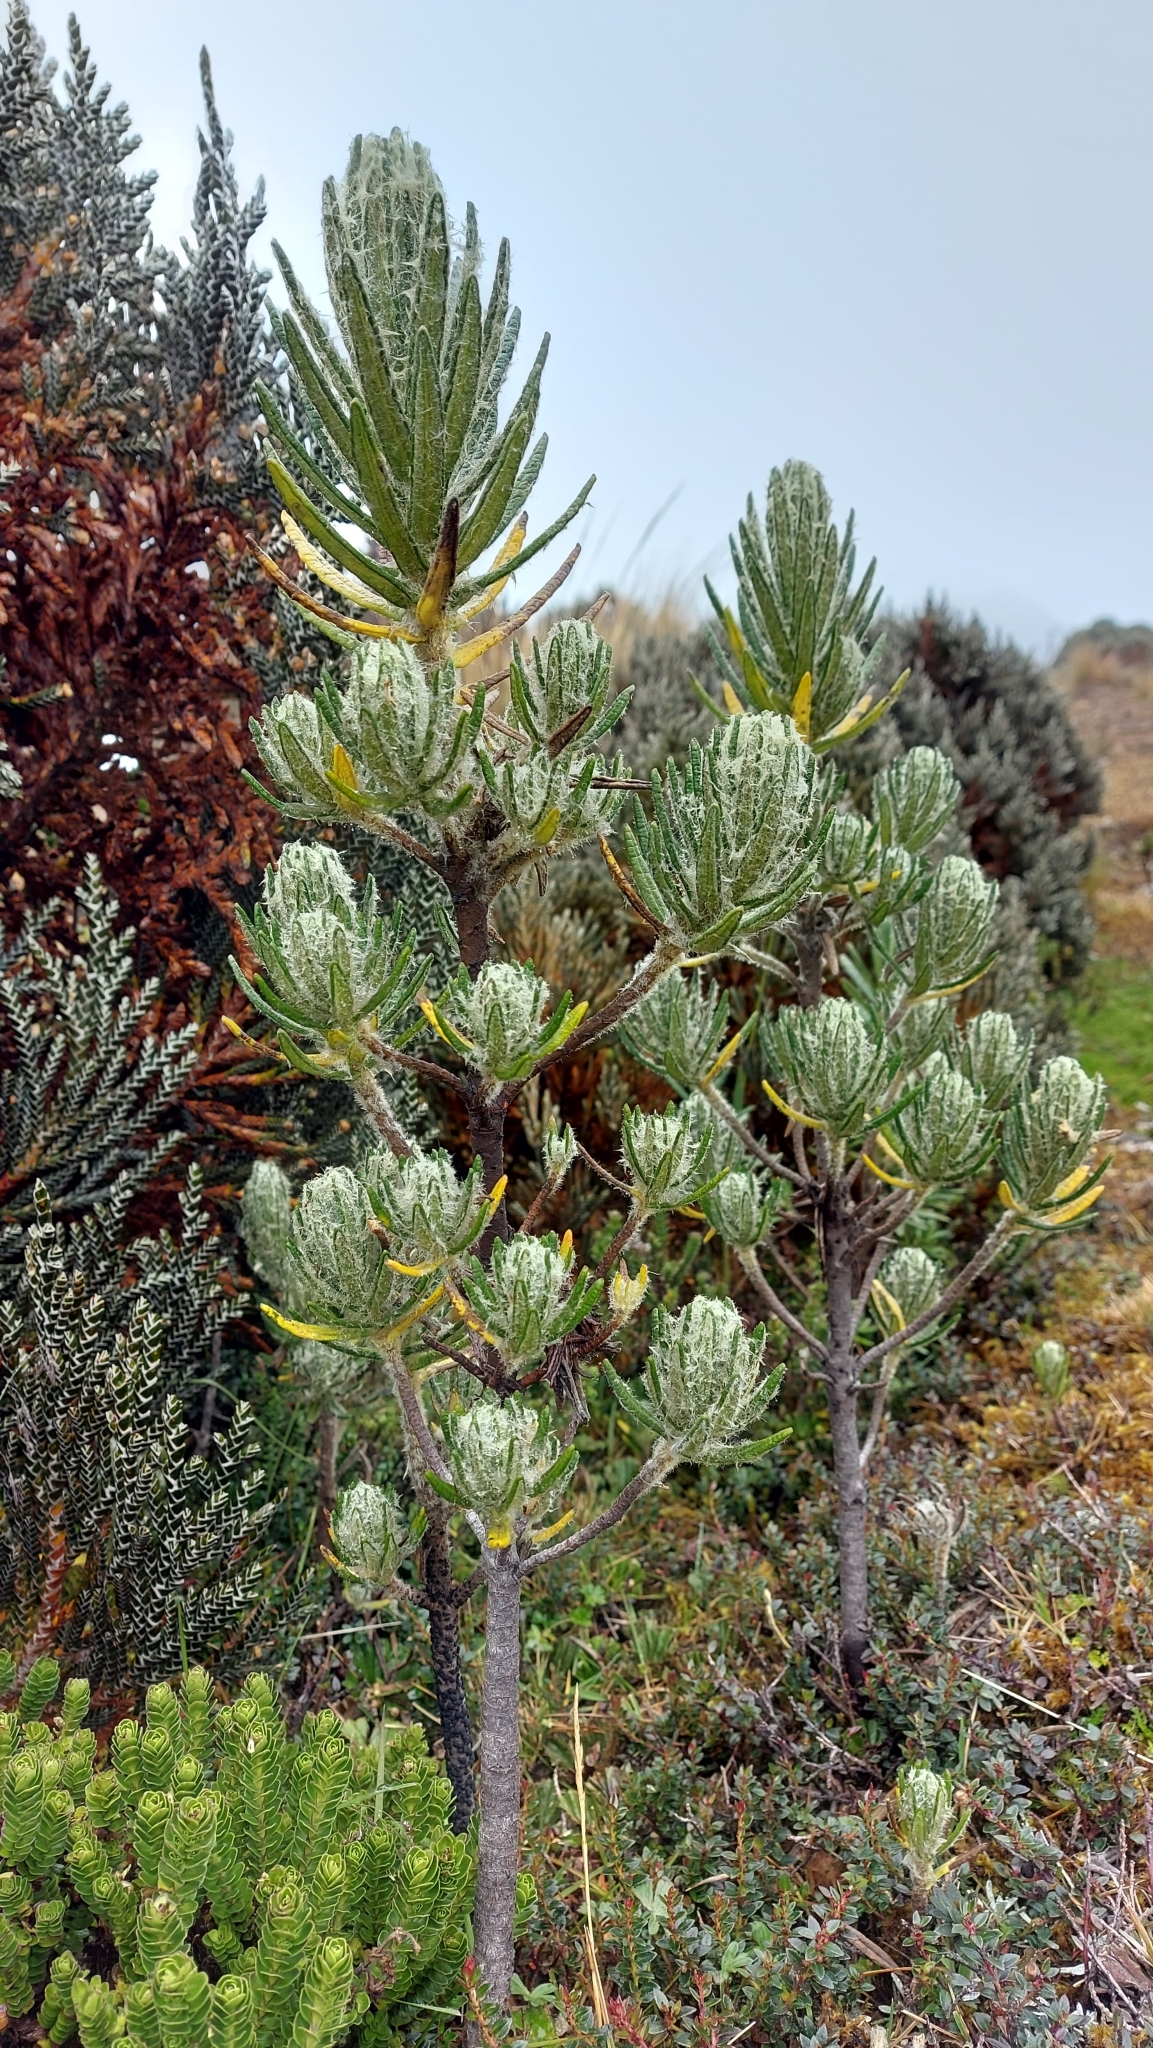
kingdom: Plantae
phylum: Tracheophyta
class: Magnoliopsida
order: Asterales
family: Asteraceae
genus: Linochilus
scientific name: Linochilus rupestris
